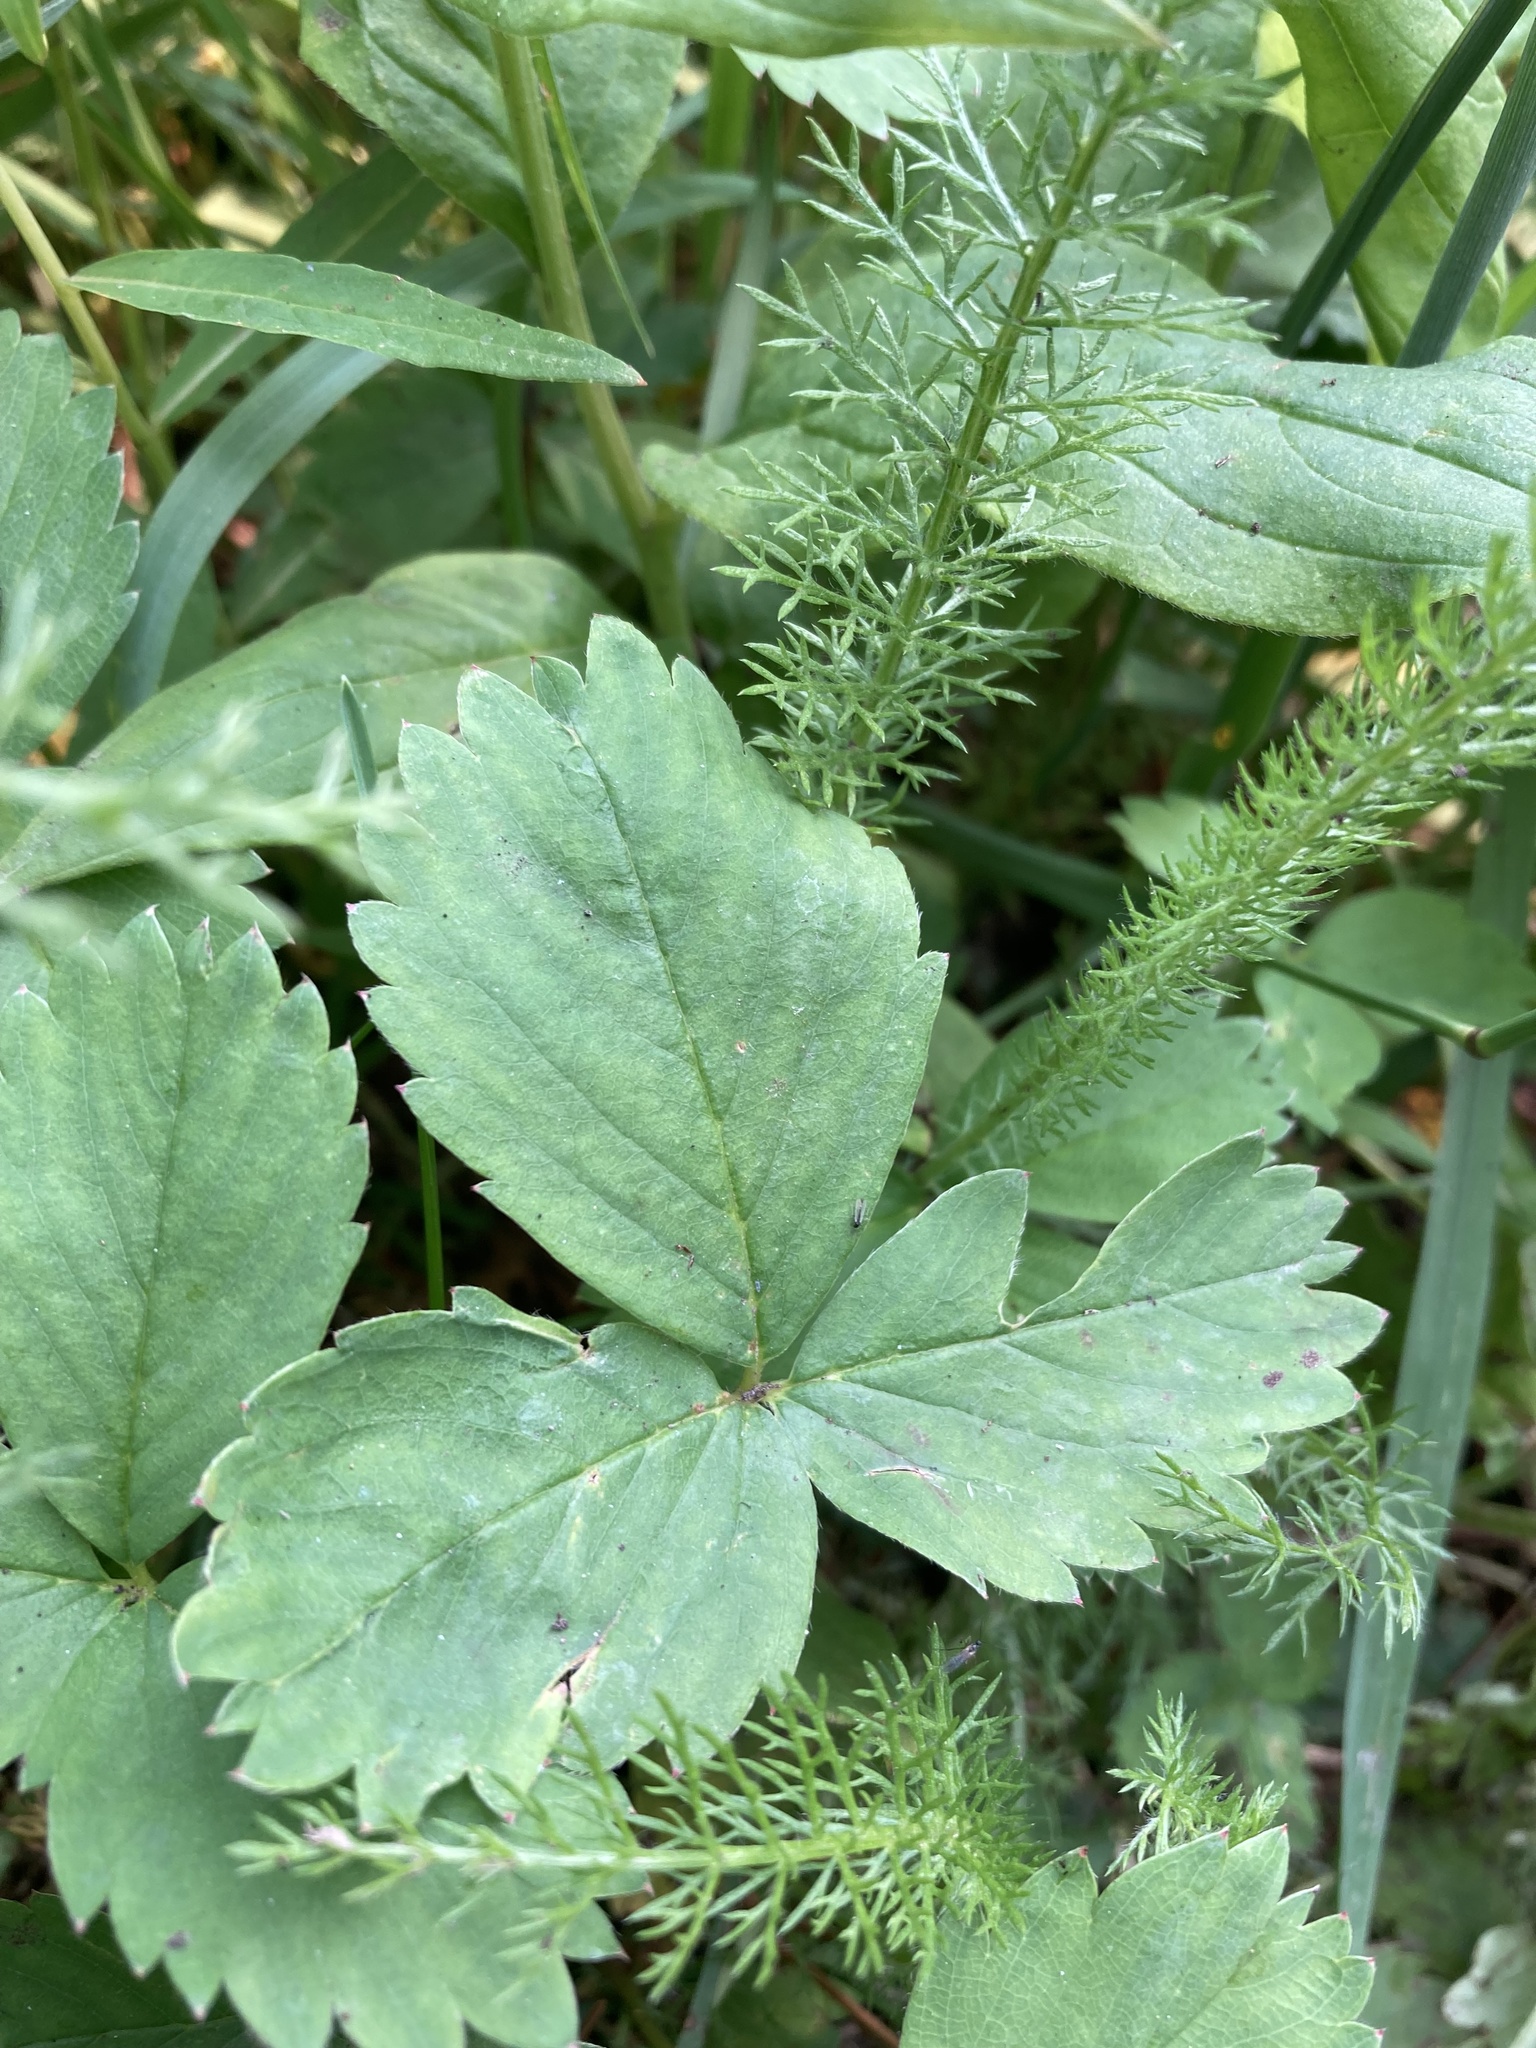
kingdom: Plantae
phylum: Tracheophyta
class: Magnoliopsida
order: Rosales
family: Rosaceae
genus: Fragaria
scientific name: Fragaria virginiana
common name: Thickleaved wild strawberry
